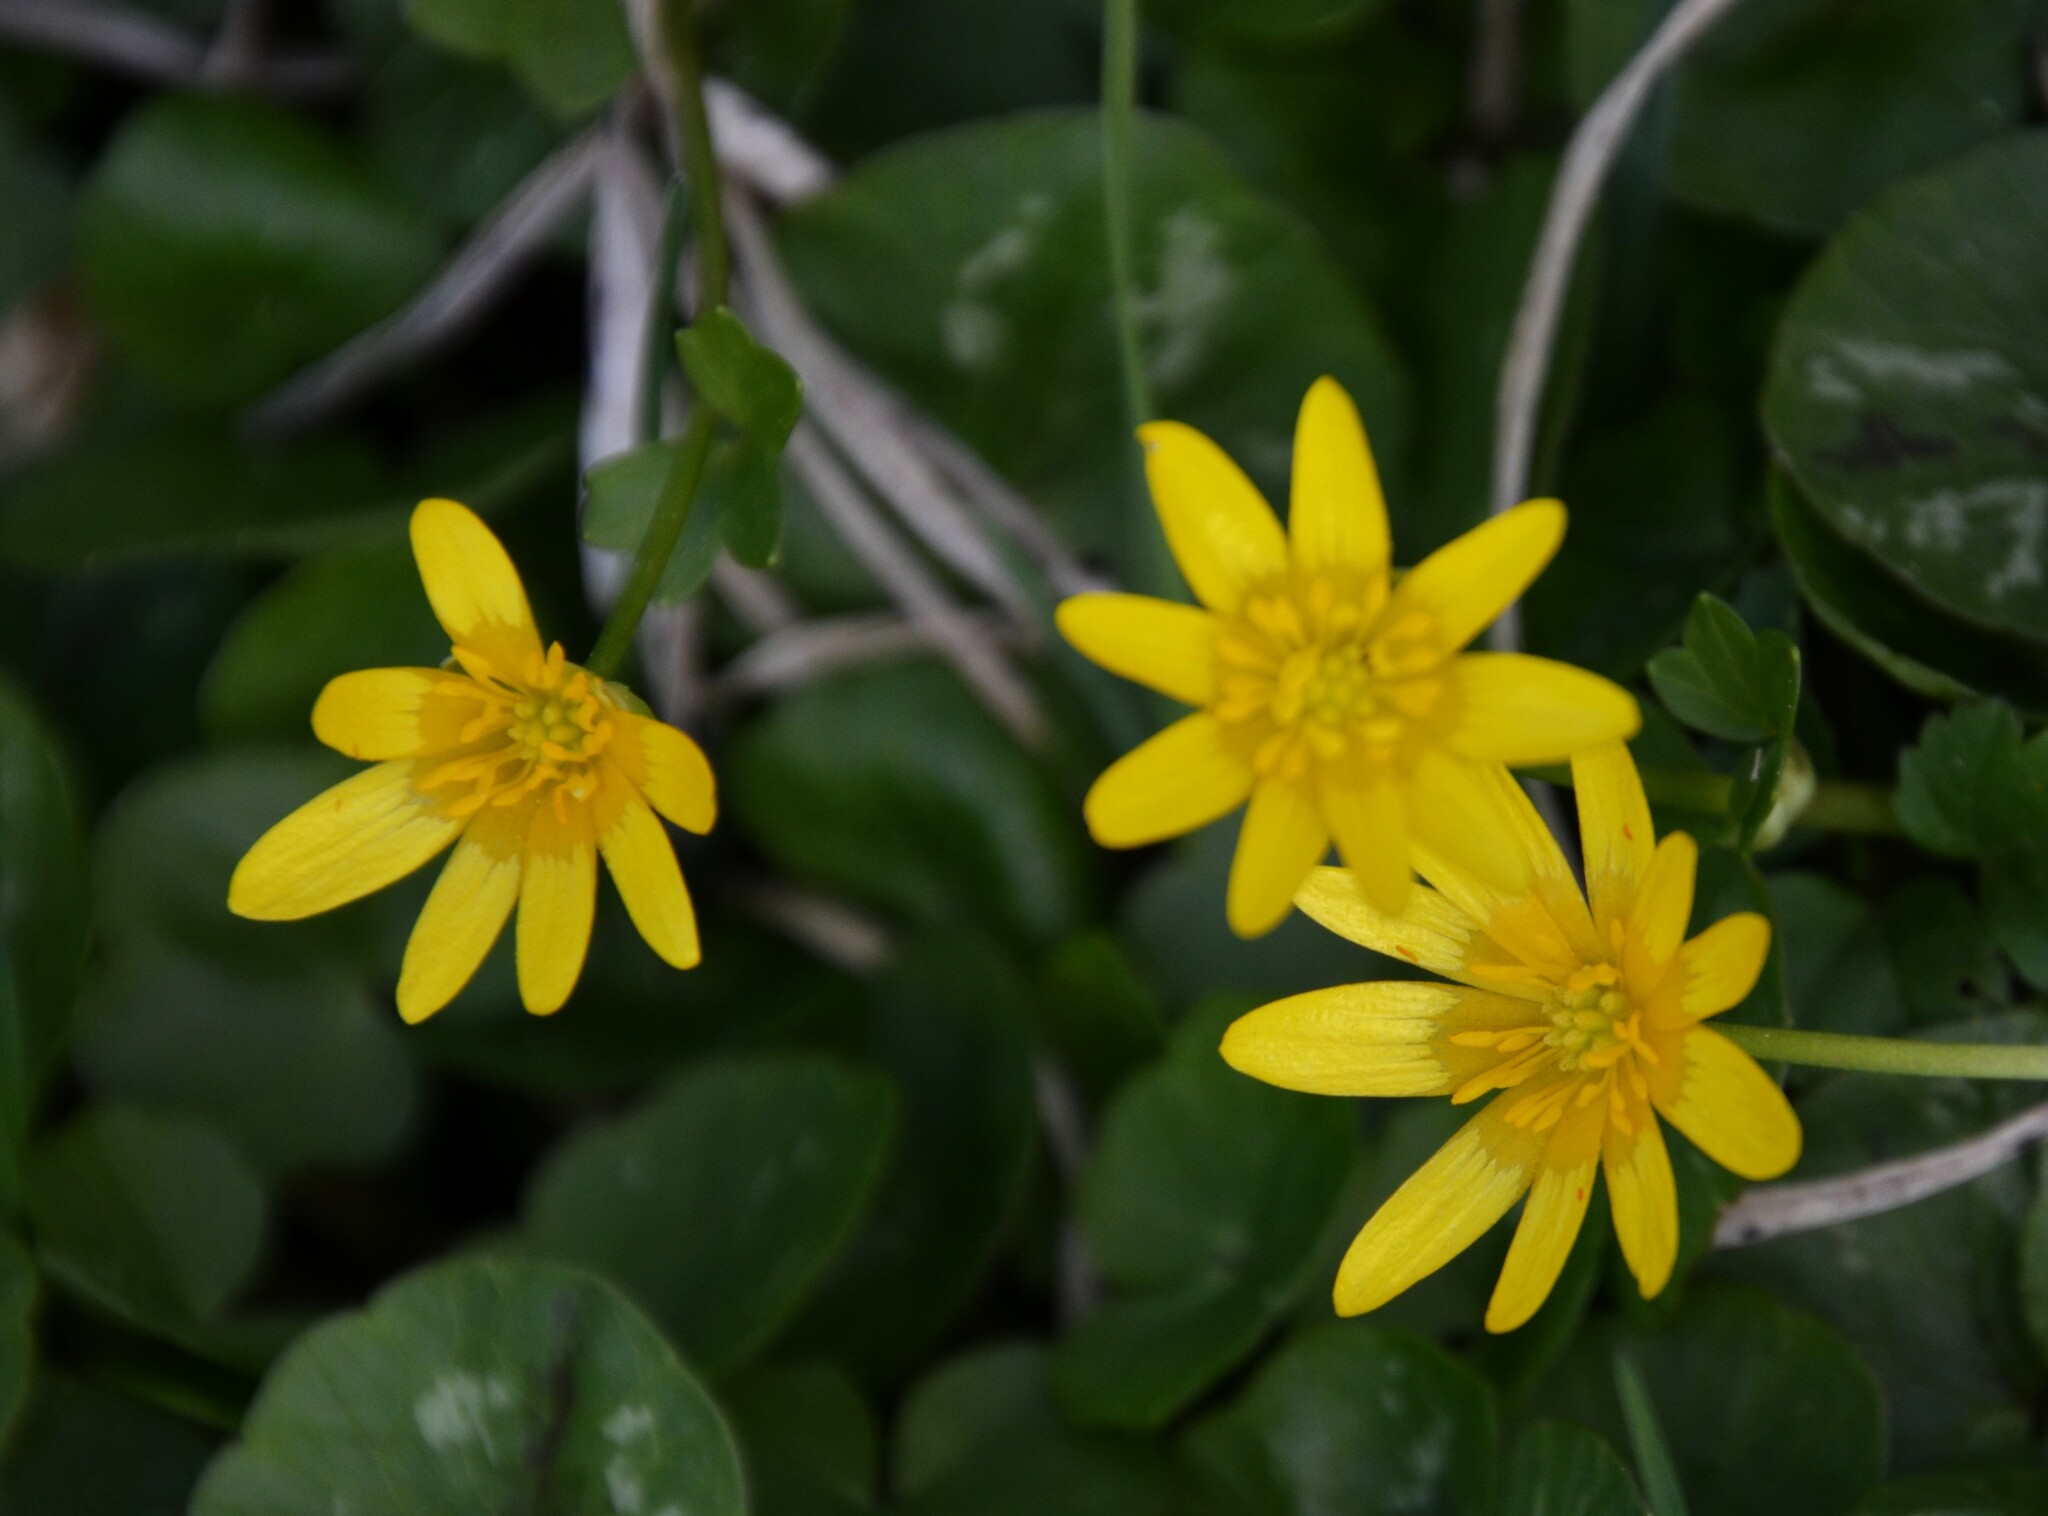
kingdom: Plantae
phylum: Tracheophyta
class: Magnoliopsida
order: Ranunculales
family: Ranunculaceae
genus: Ficaria
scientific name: Ficaria verna
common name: Lesser celandine
